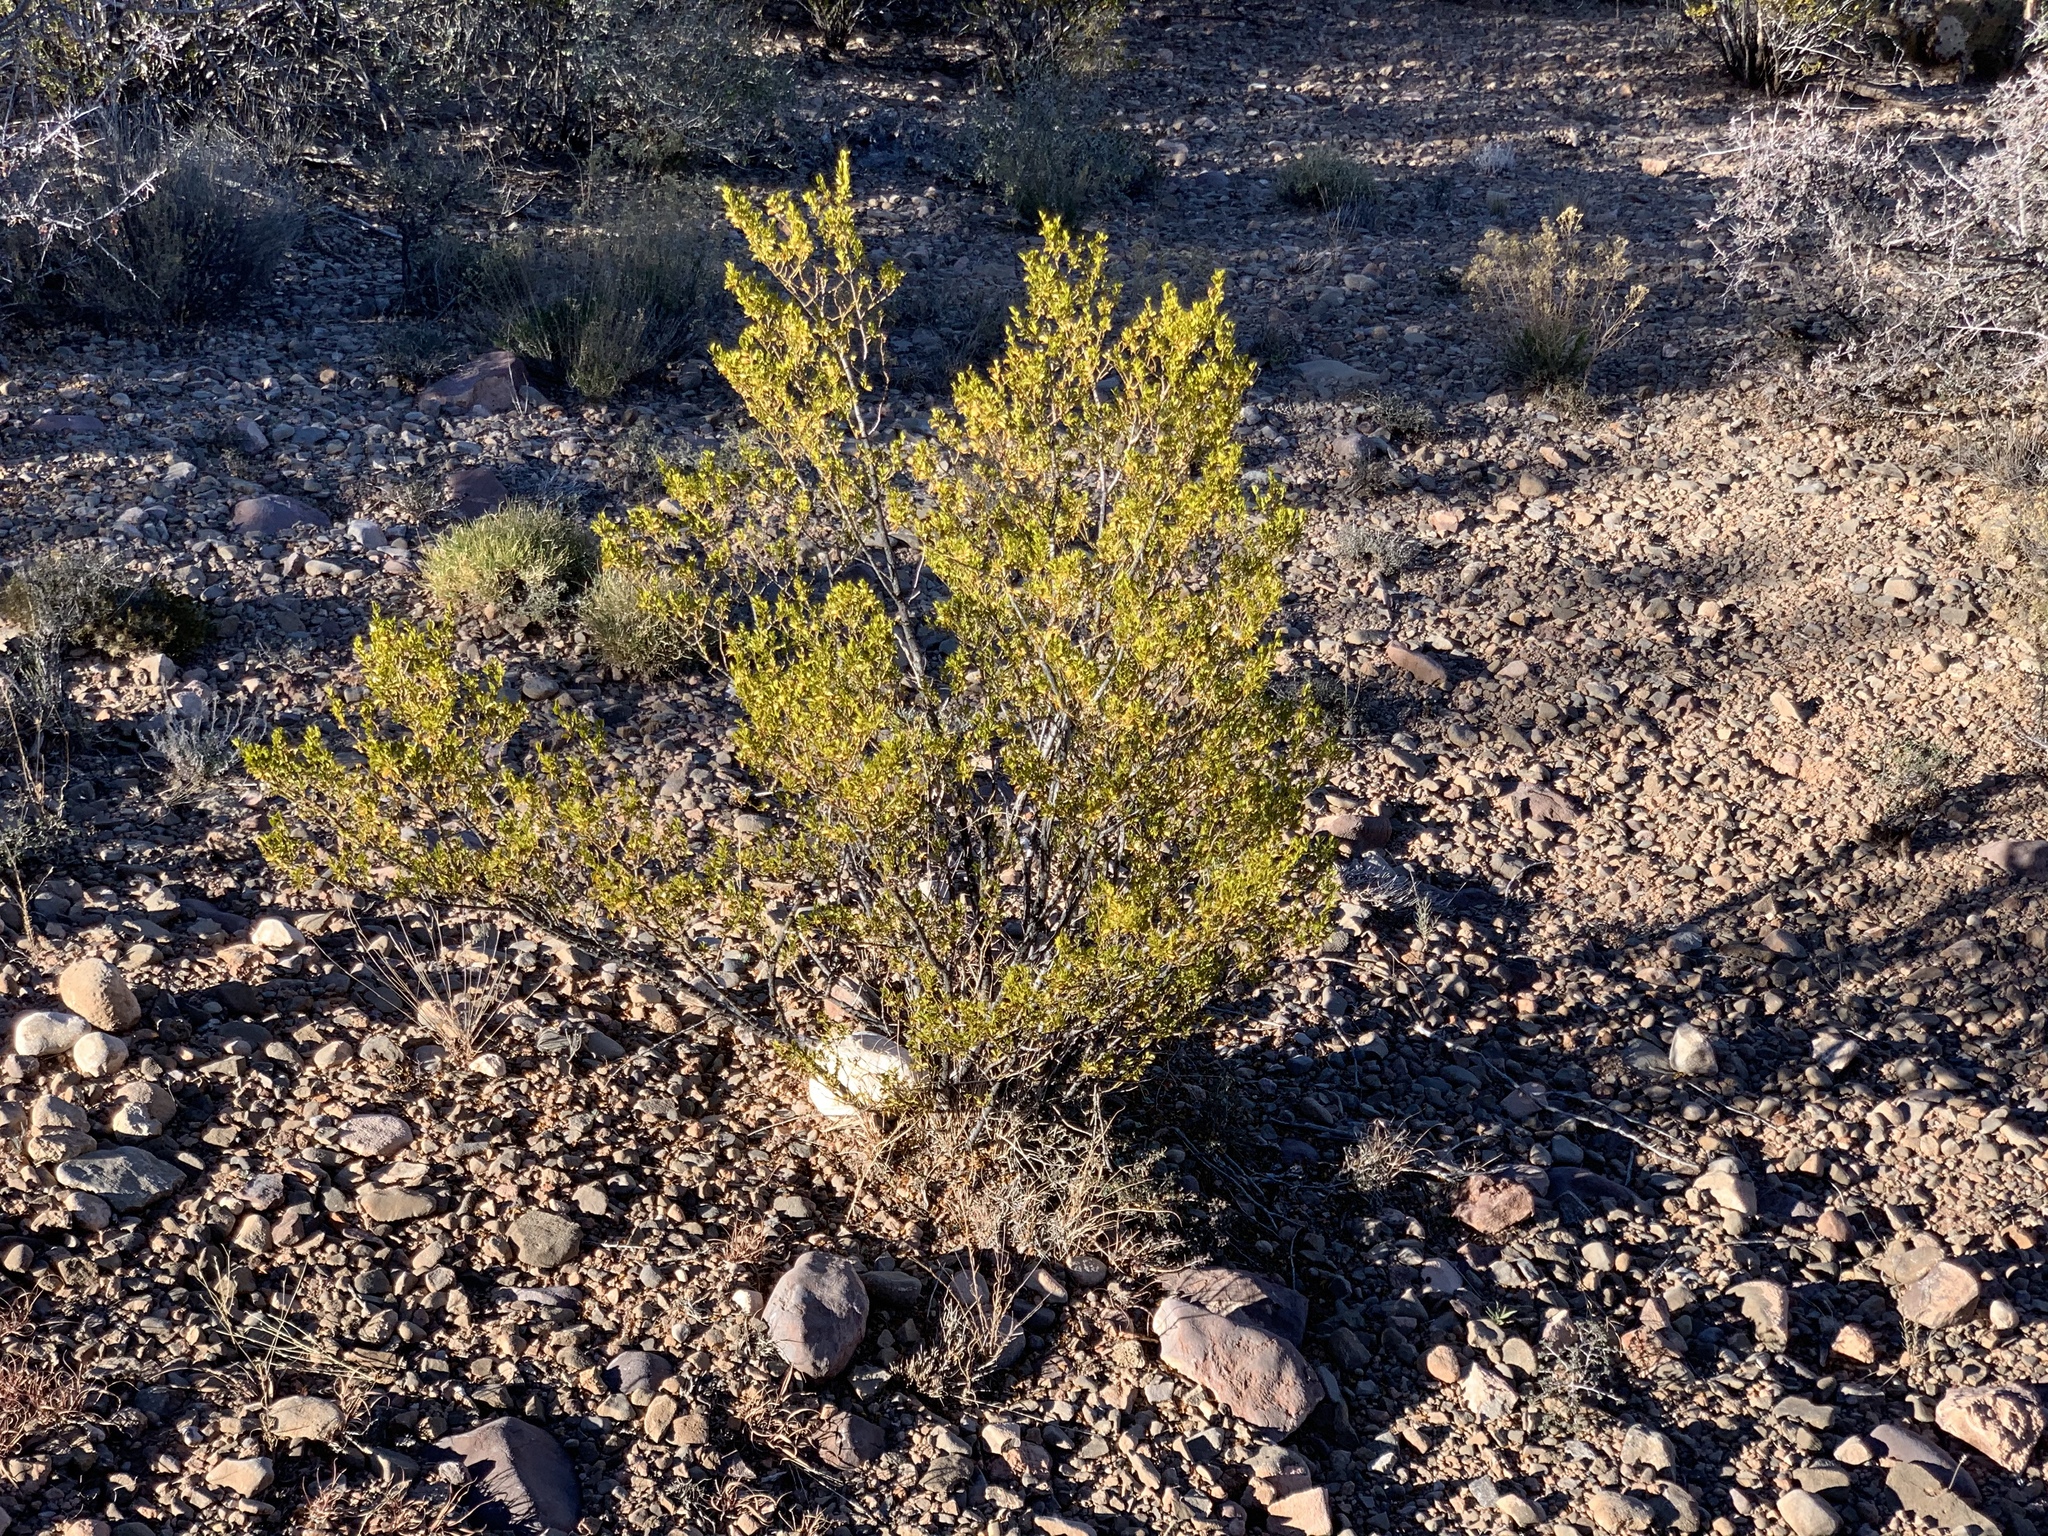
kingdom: Plantae
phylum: Tracheophyta
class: Magnoliopsida
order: Zygophyllales
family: Zygophyllaceae
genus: Larrea
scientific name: Larrea tridentata
